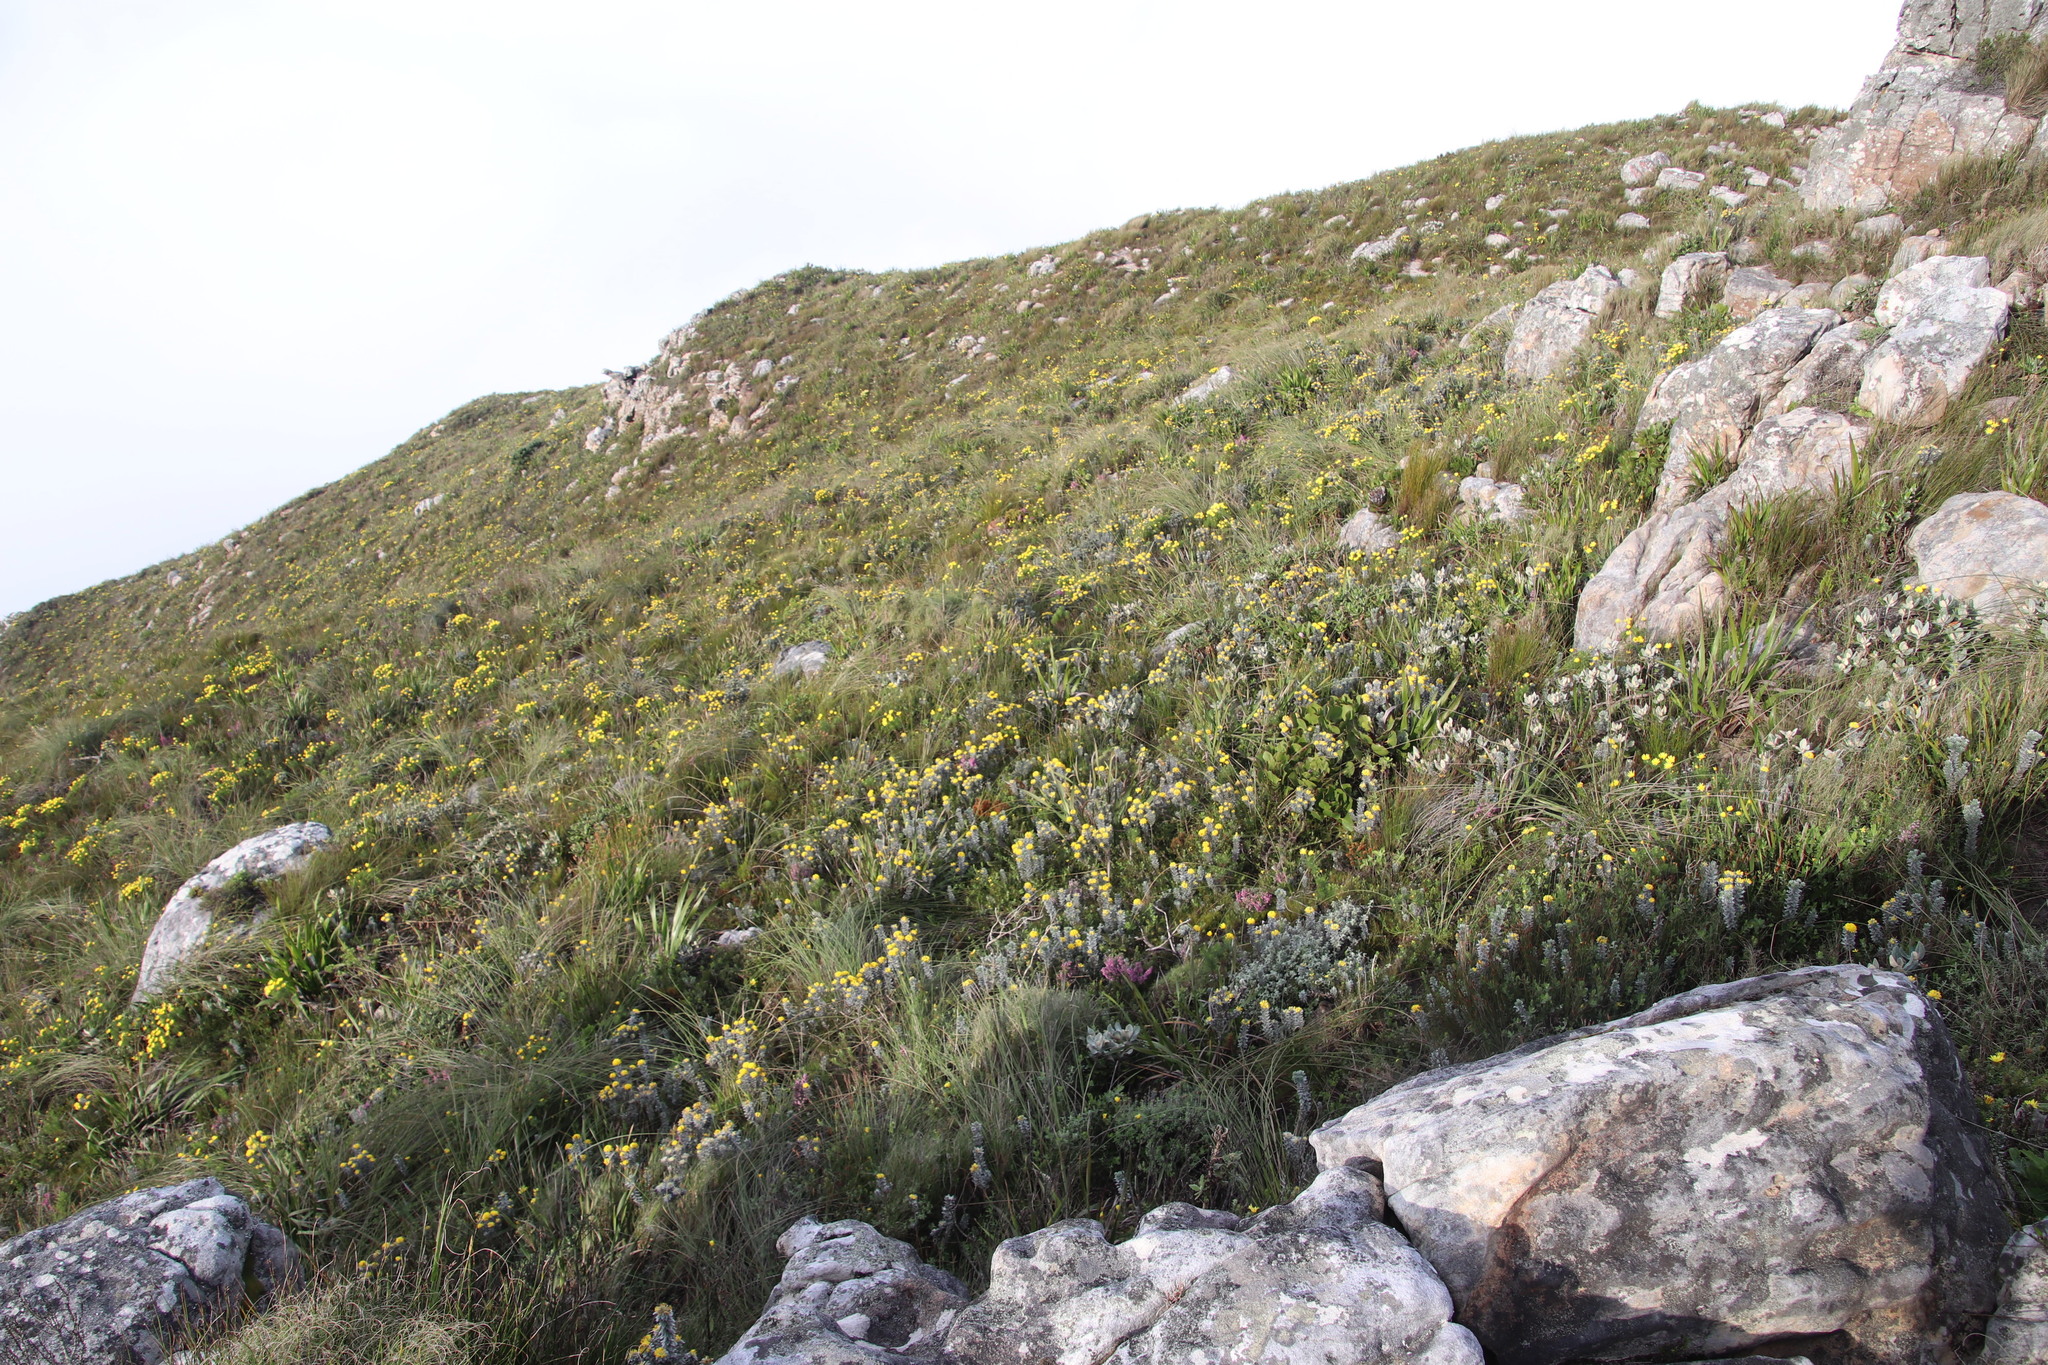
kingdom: Plantae
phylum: Tracheophyta
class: Magnoliopsida
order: Fabales
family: Fabaceae
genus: Xiphotheca
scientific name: Xiphotheca fruticosa
